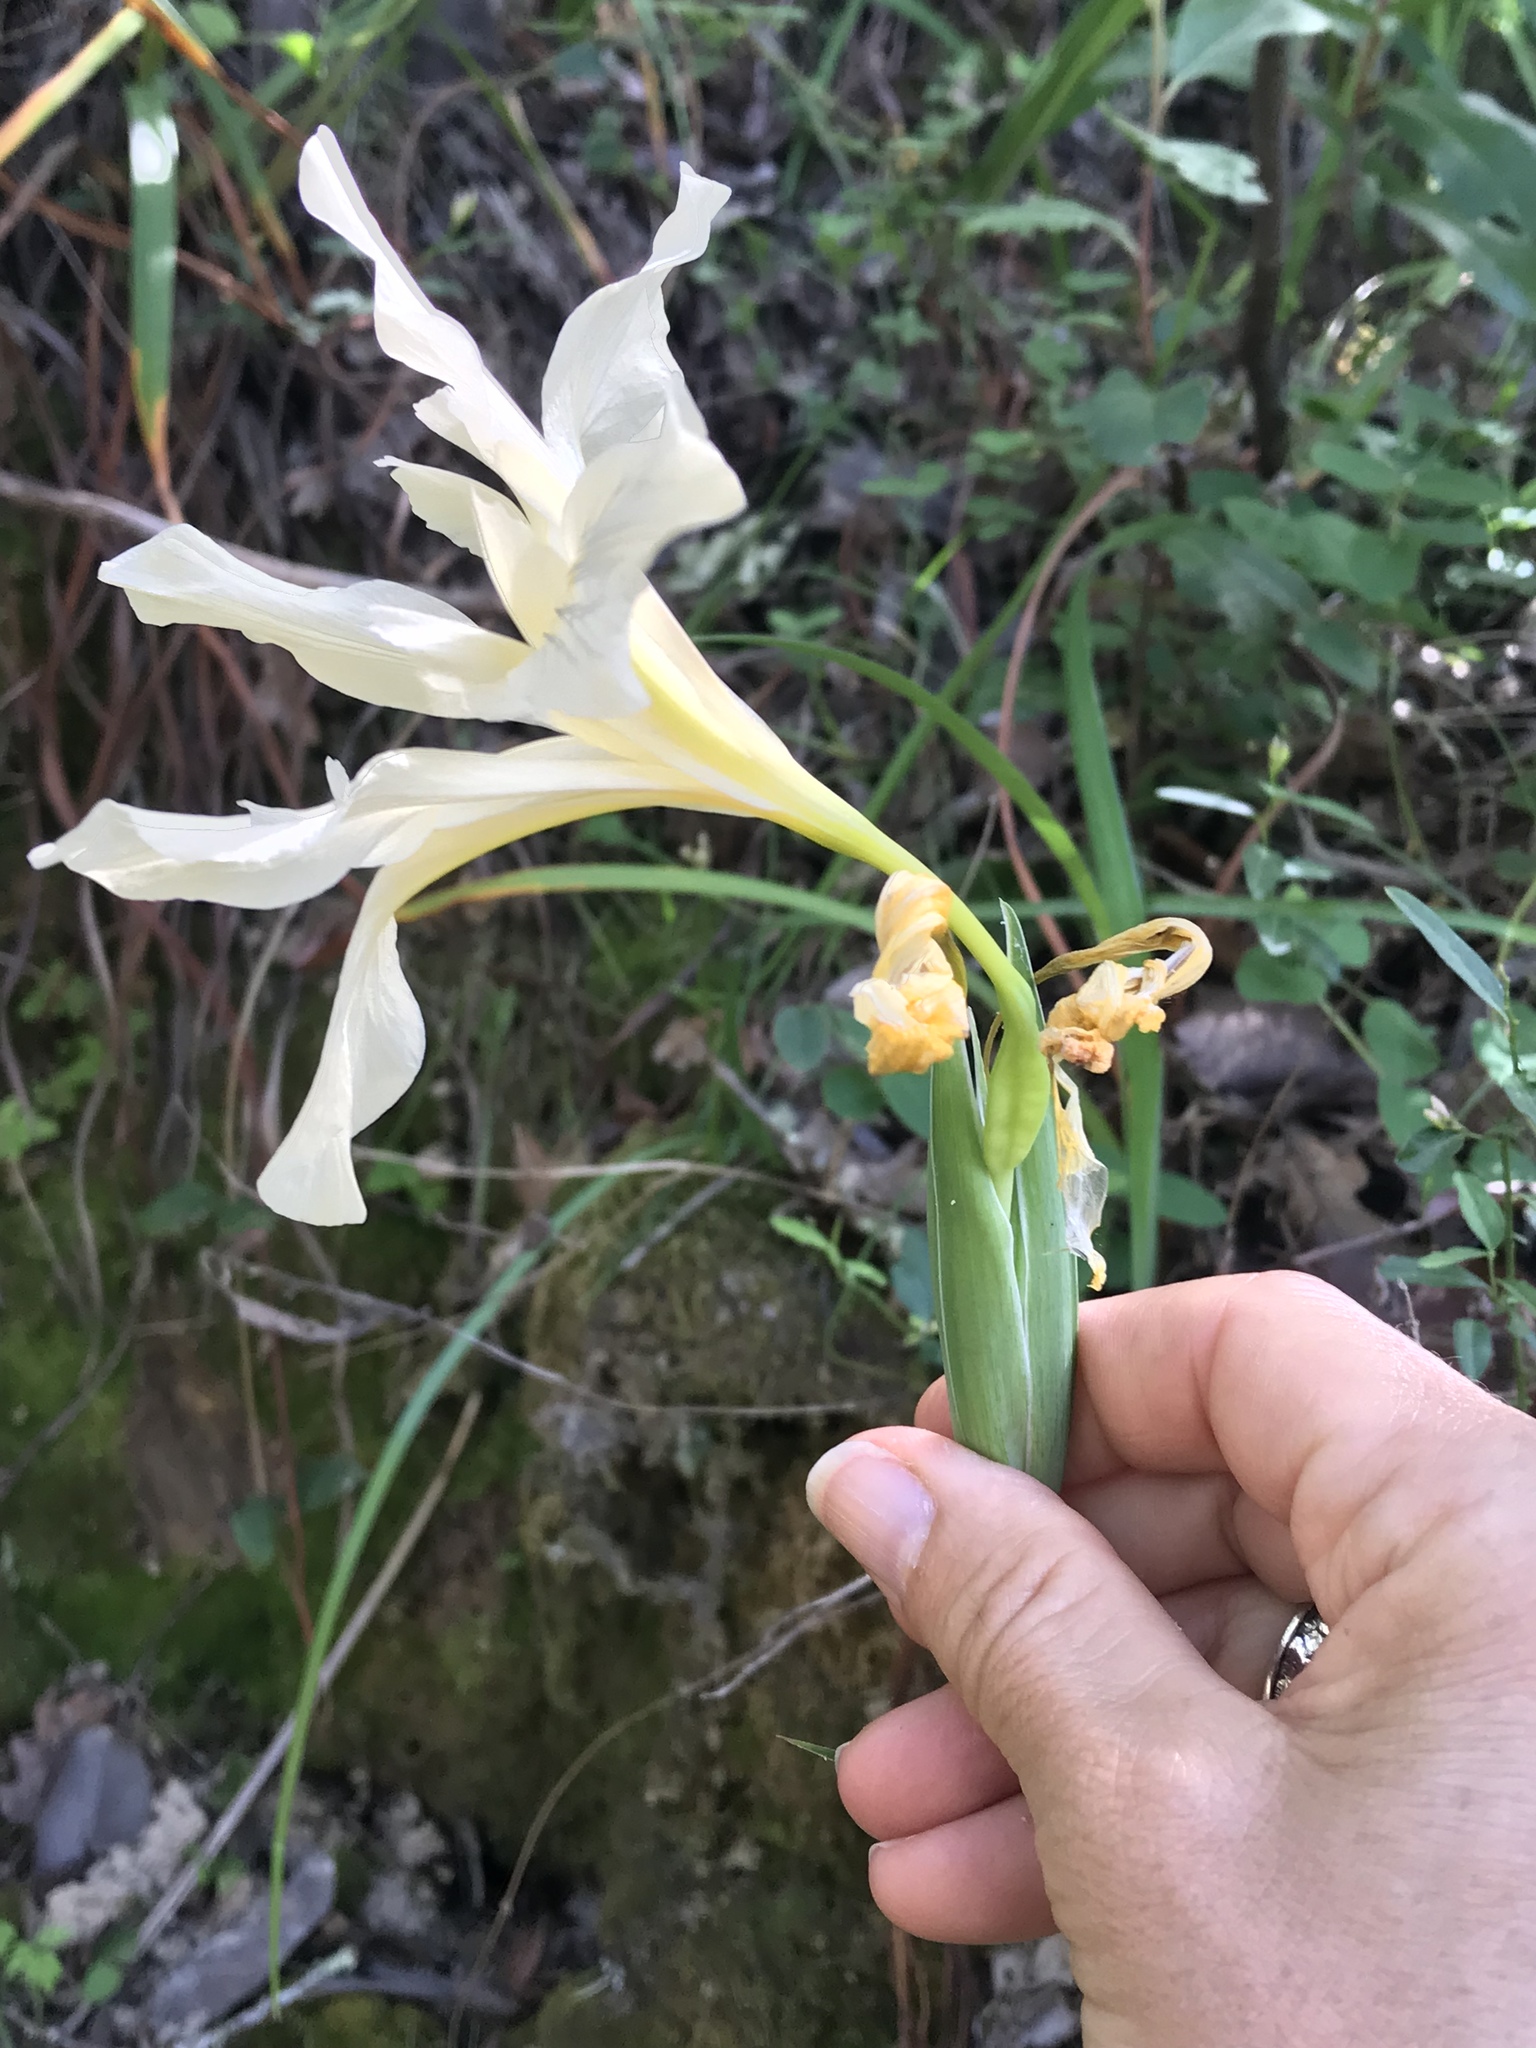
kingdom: Plantae
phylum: Tracheophyta
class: Liliopsida
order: Asparagales
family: Iridaceae
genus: Iris
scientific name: Iris douglasiana
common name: Marin iris
